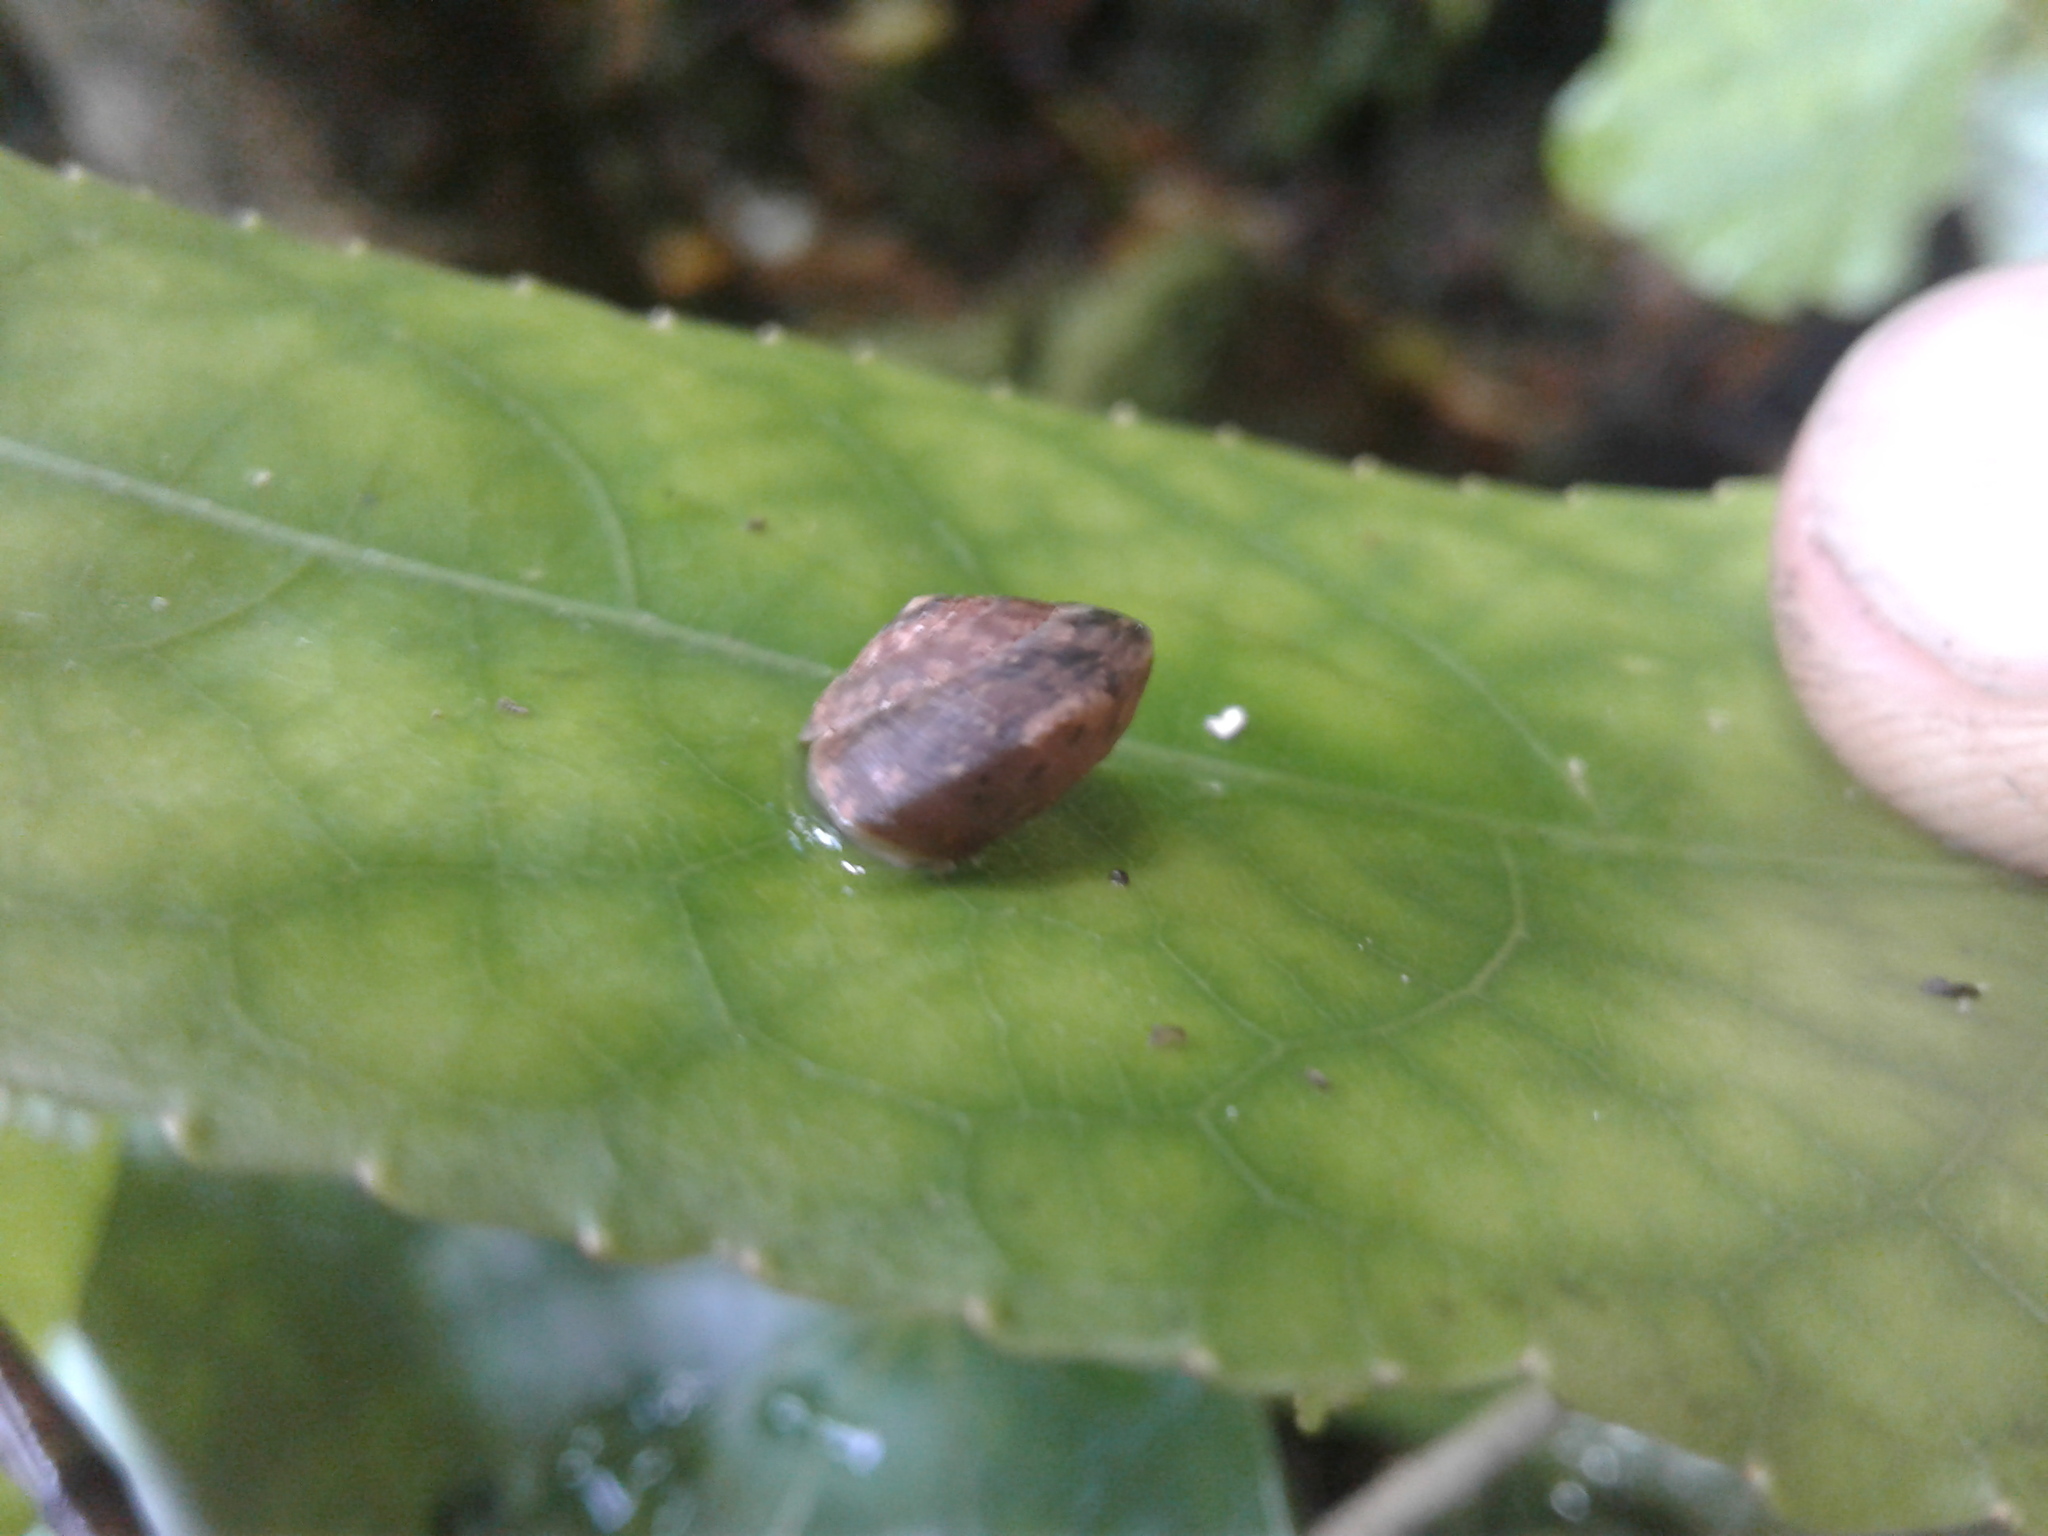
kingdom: Animalia
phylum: Mollusca
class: Gastropoda
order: Stylommatophora
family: Charopidae
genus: Thalassohelix
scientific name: Thalassohelix
